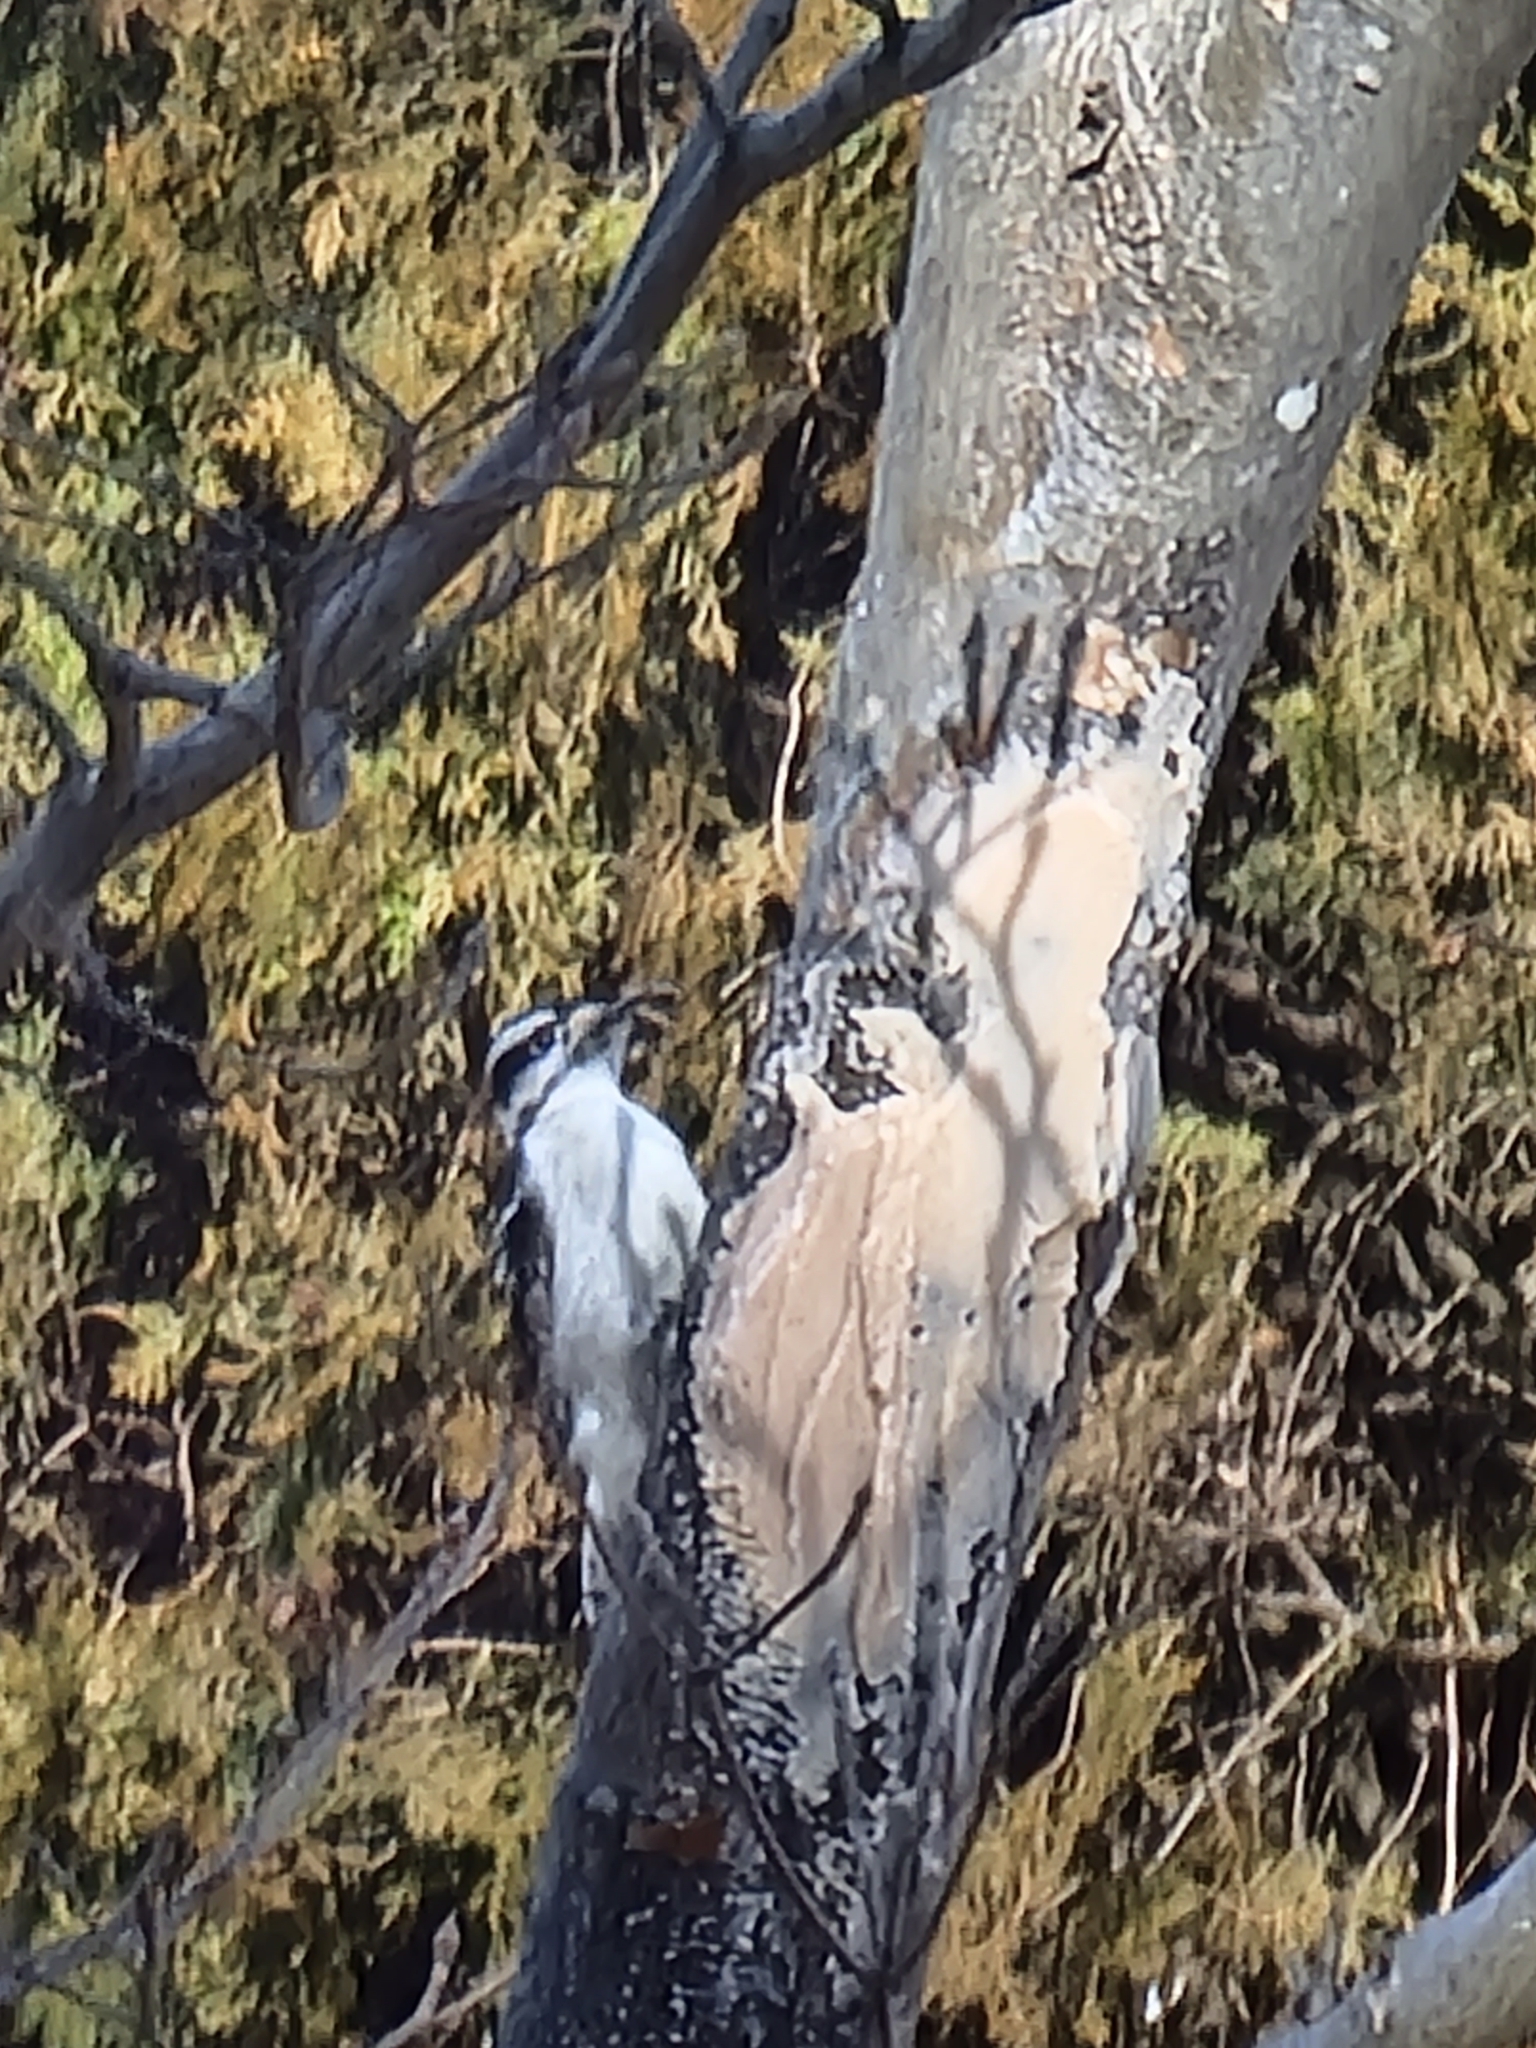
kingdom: Animalia
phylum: Chordata
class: Aves
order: Piciformes
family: Picidae
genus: Dryobates
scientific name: Dryobates pubescens
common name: Downy woodpecker
